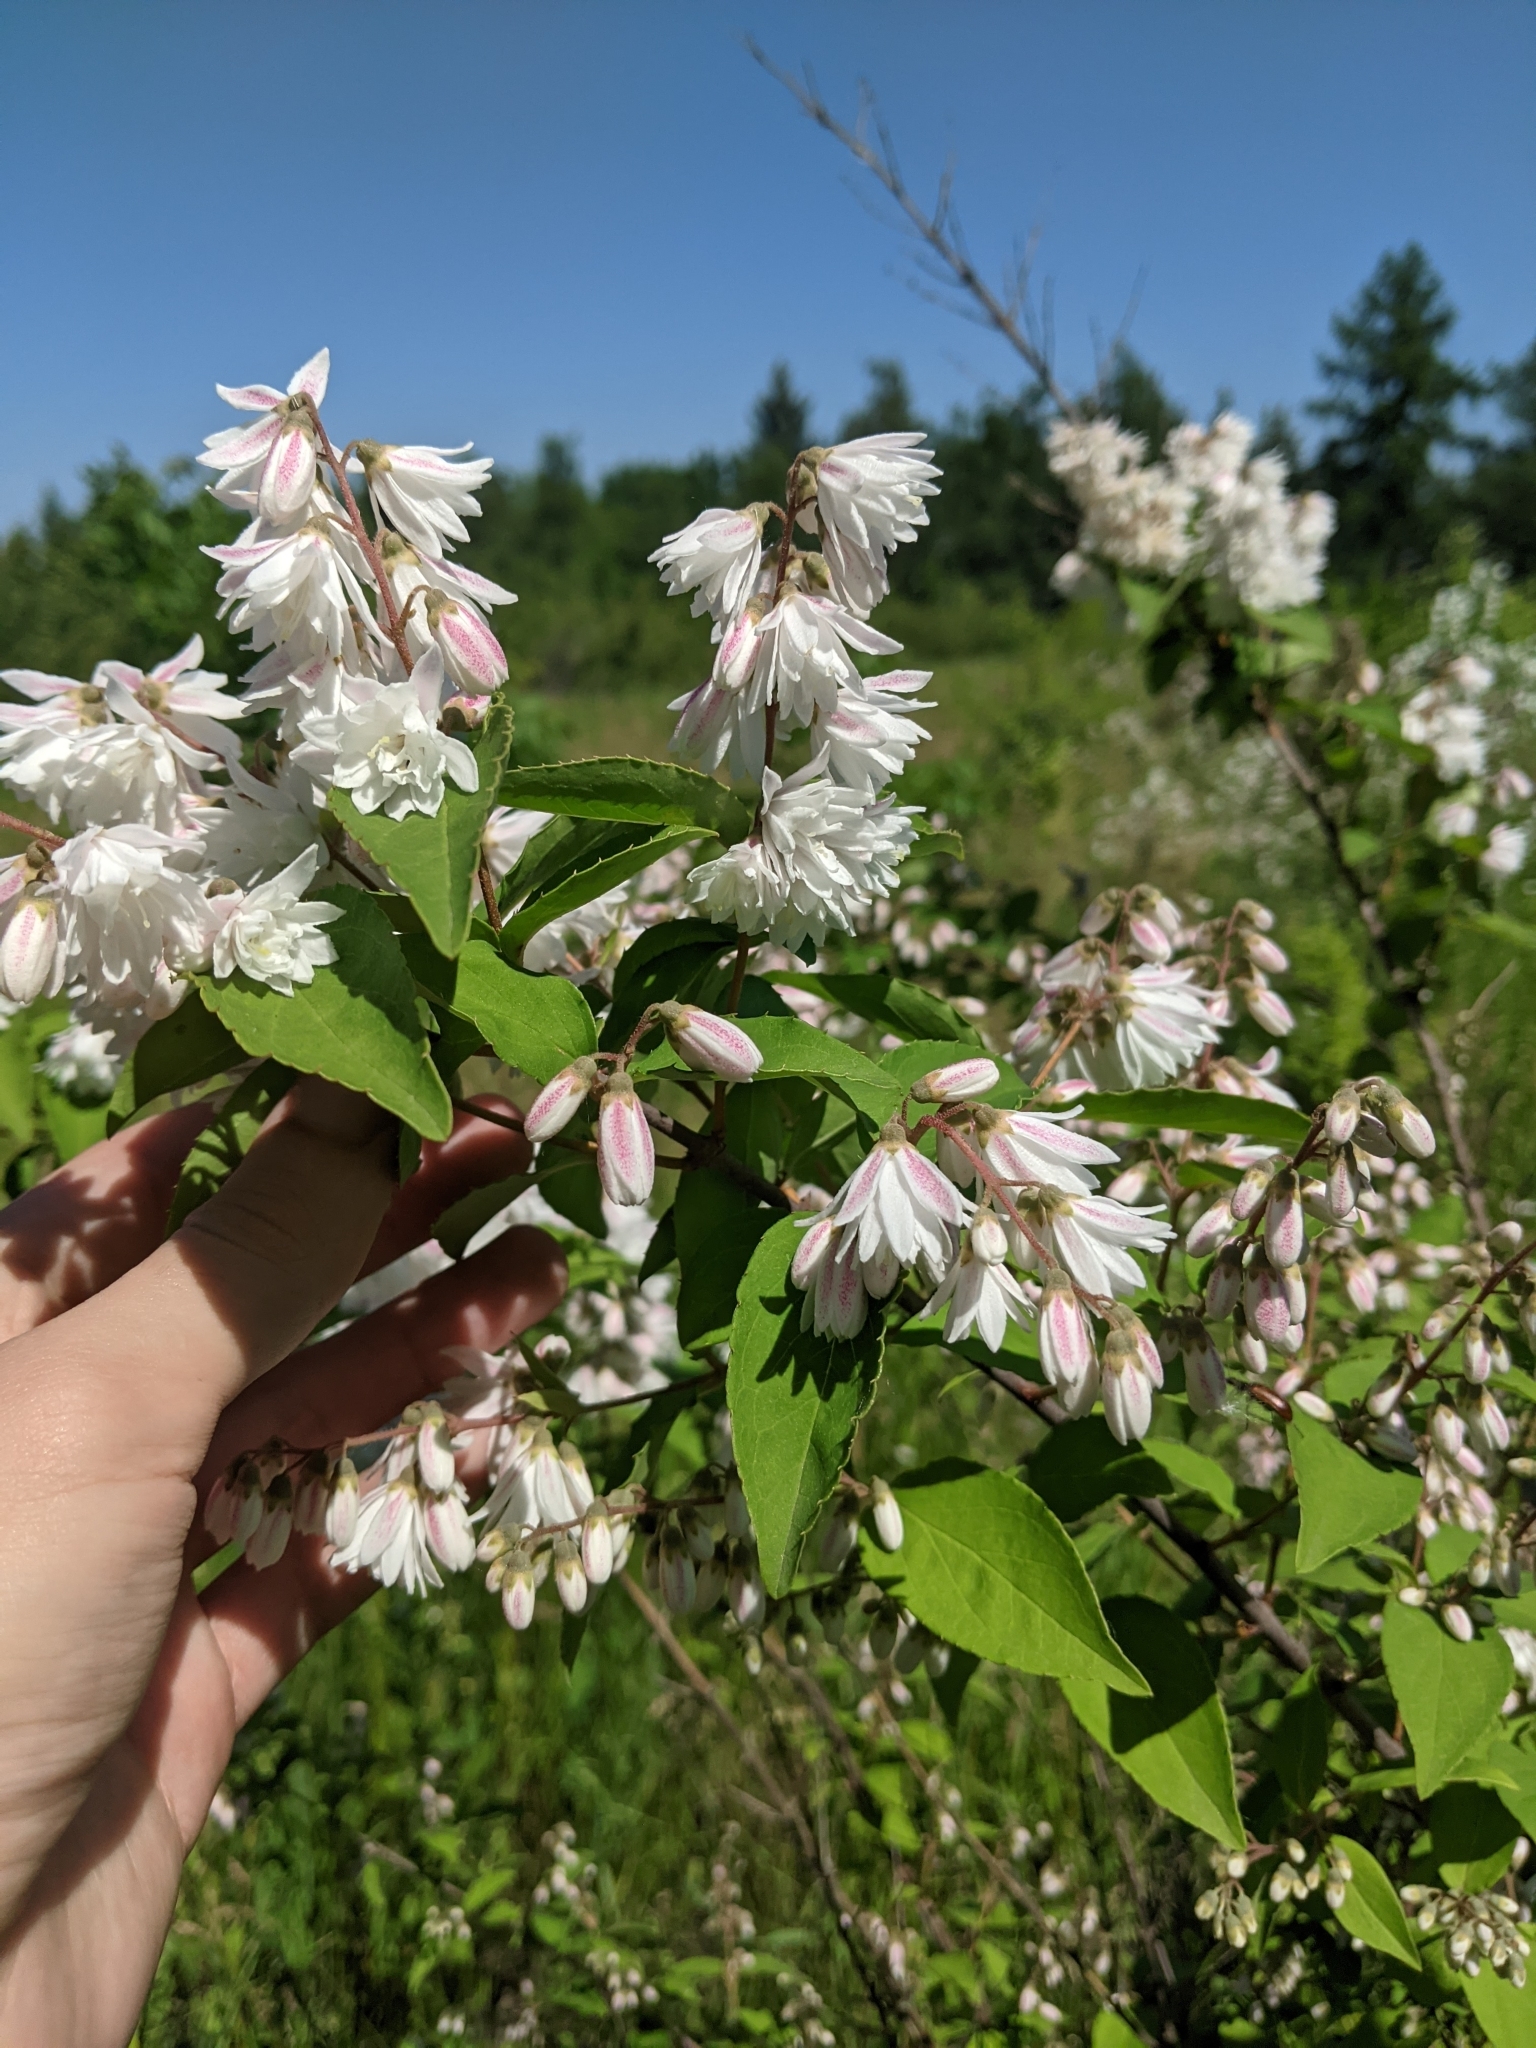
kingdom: Plantae
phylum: Tracheophyta
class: Magnoliopsida
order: Cornales
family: Hydrangeaceae
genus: Deutzia
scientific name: Deutzia scabra
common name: Deutzia
